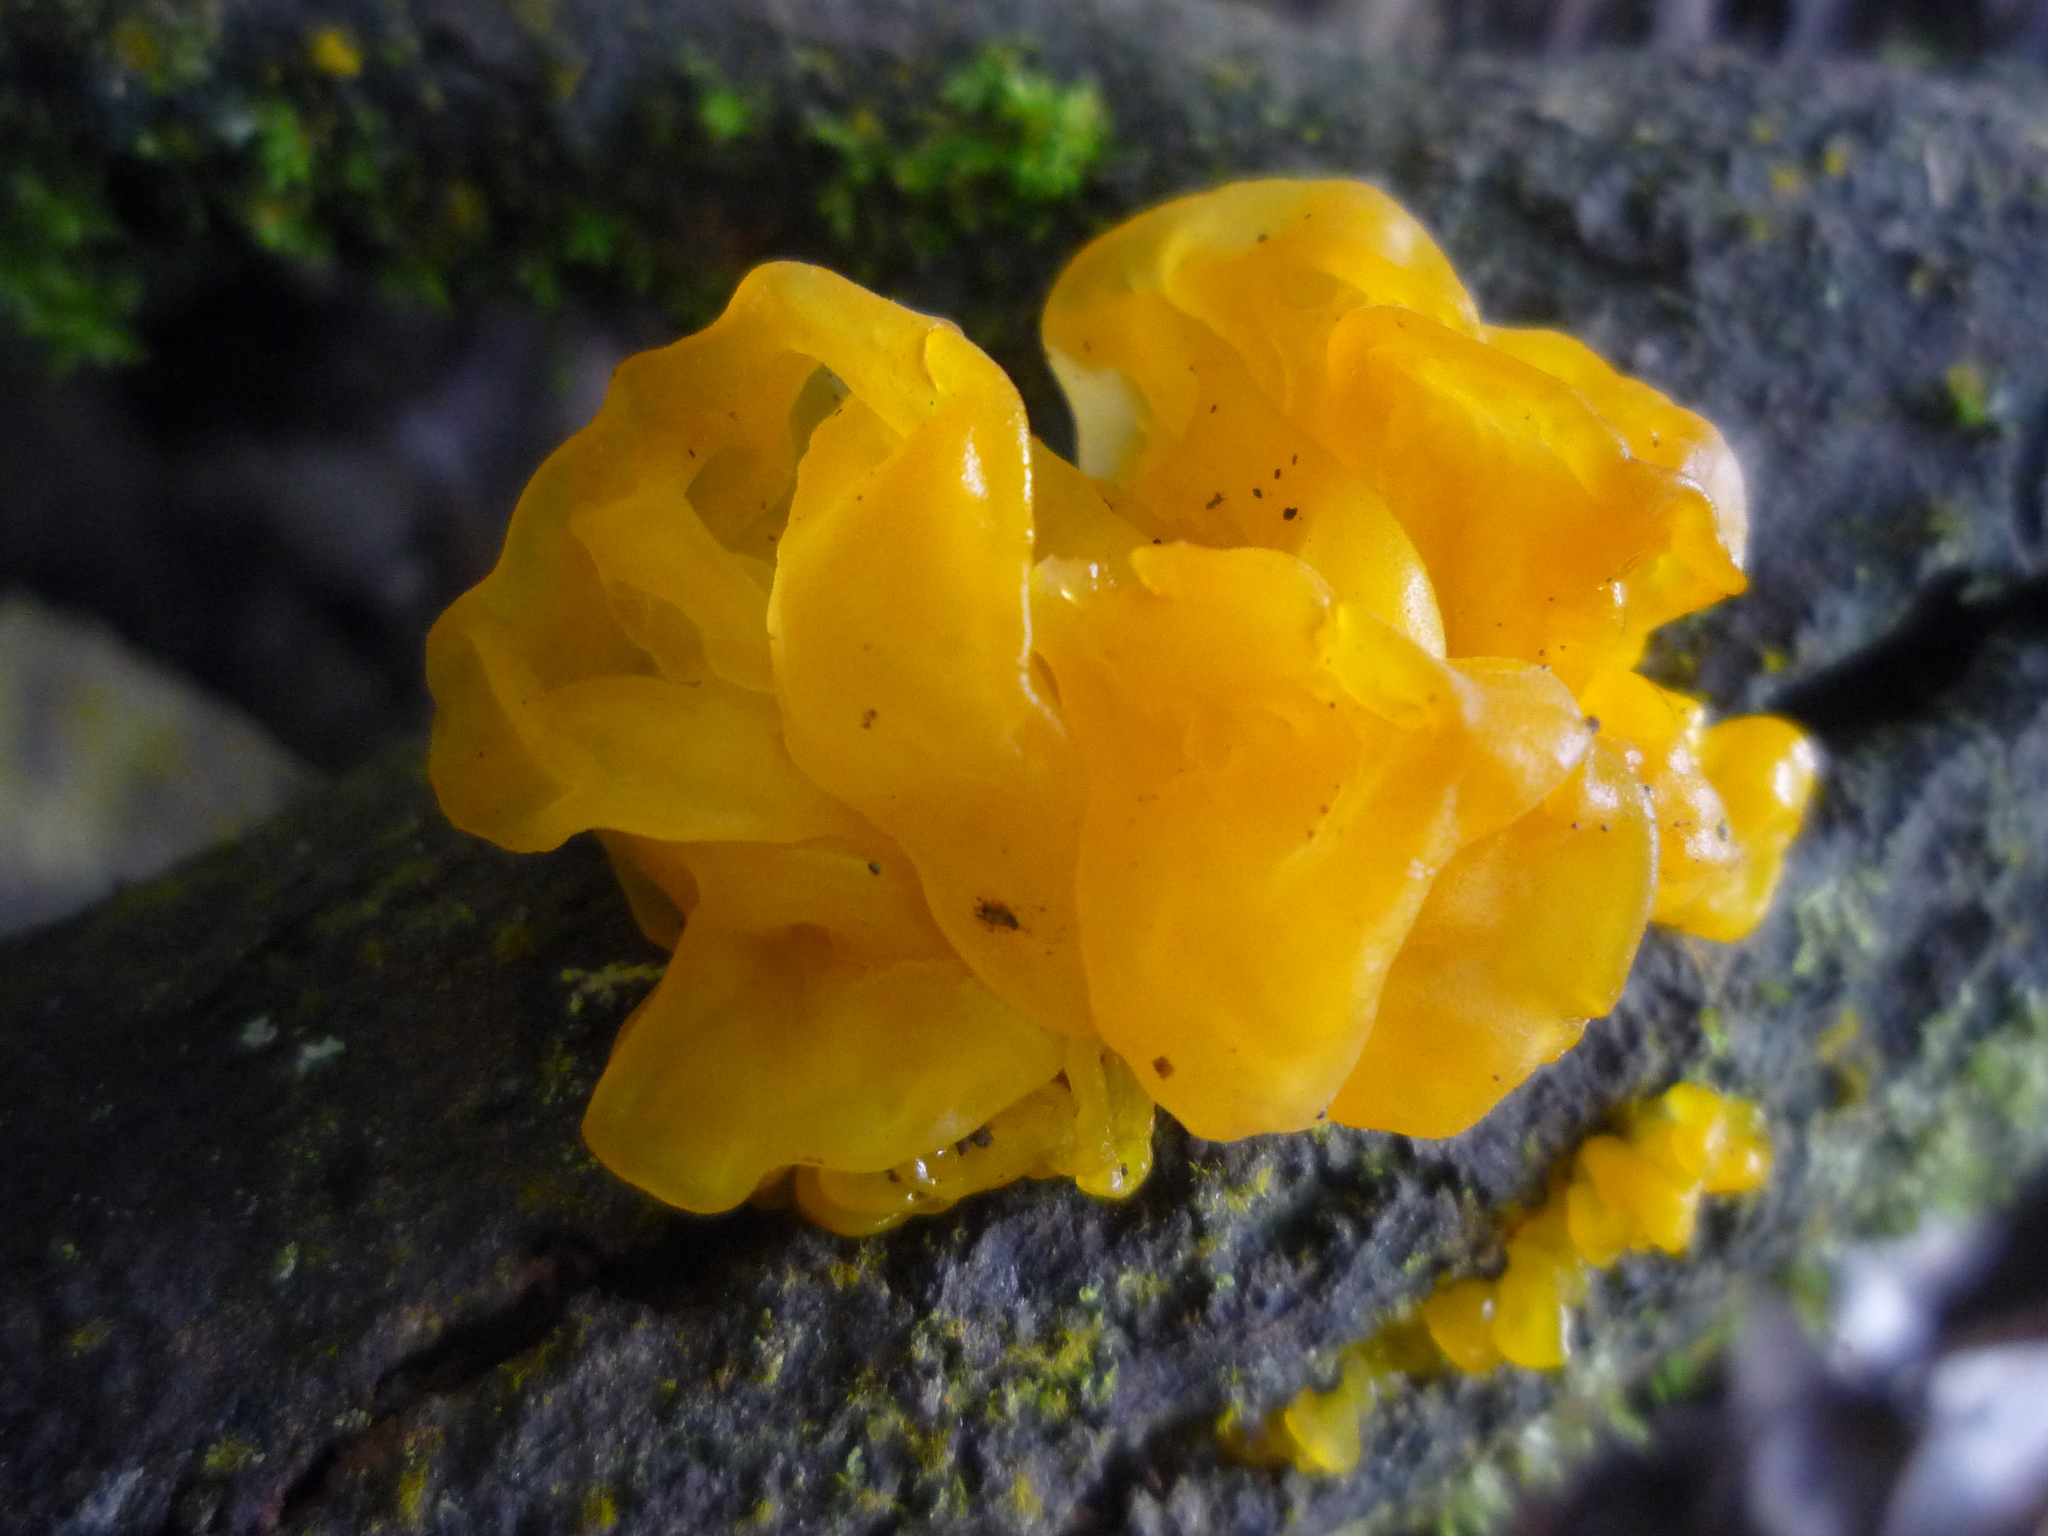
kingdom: Fungi
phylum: Basidiomycota
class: Tremellomycetes
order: Tremellales
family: Tremellaceae
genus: Tremella
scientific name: Tremella mesenterica
